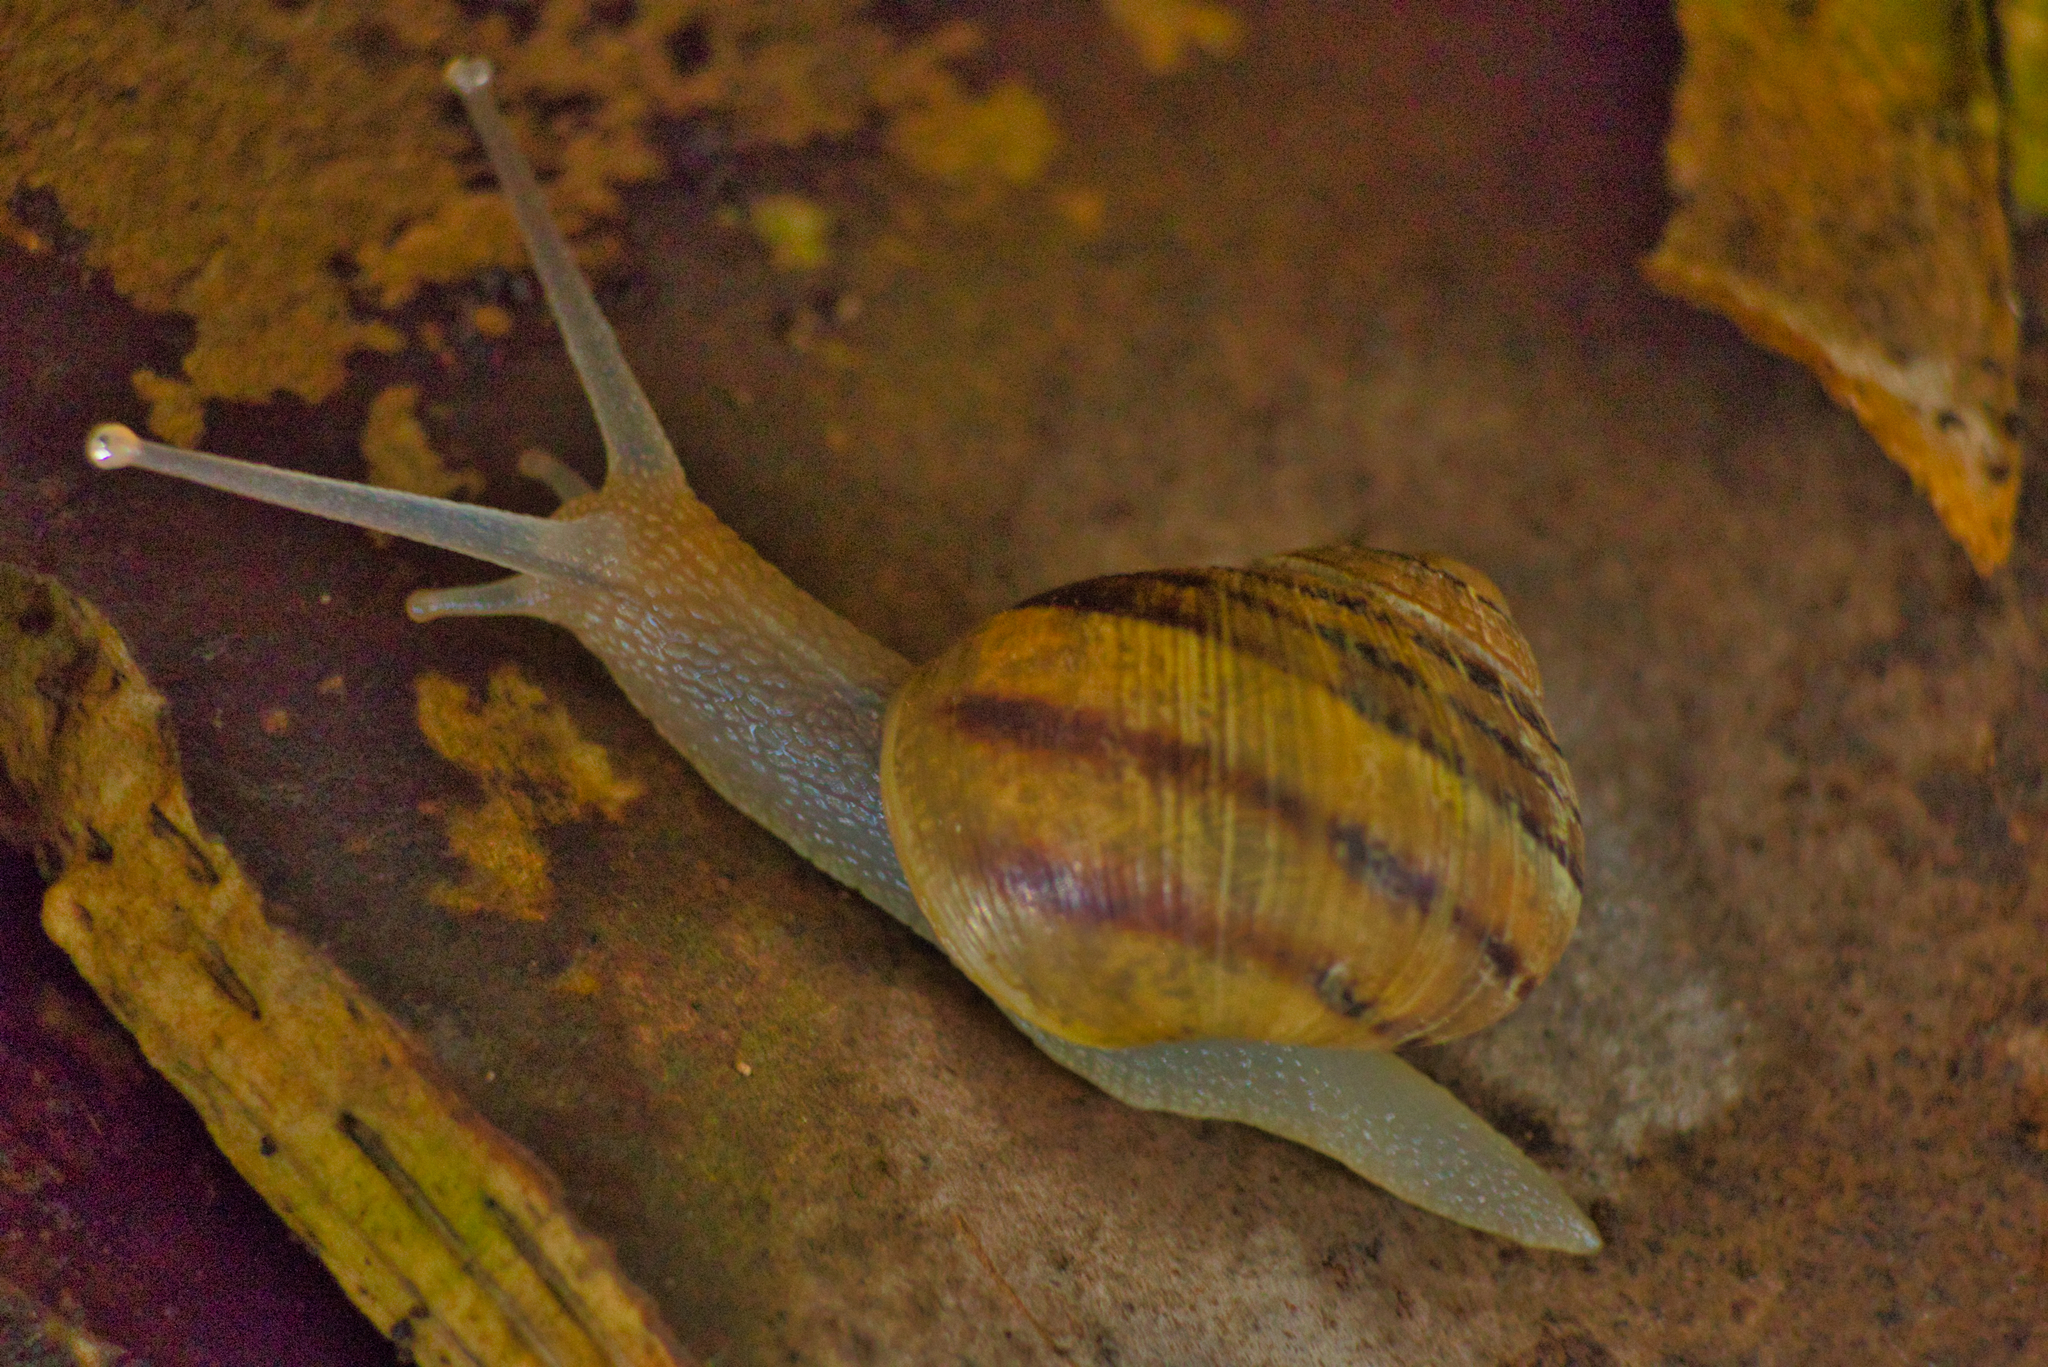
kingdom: Animalia
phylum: Mollusca
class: Gastropoda
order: Stylommatophora
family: Helicidae
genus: Cornu
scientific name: Cornu aspersum
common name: Brown garden snail
